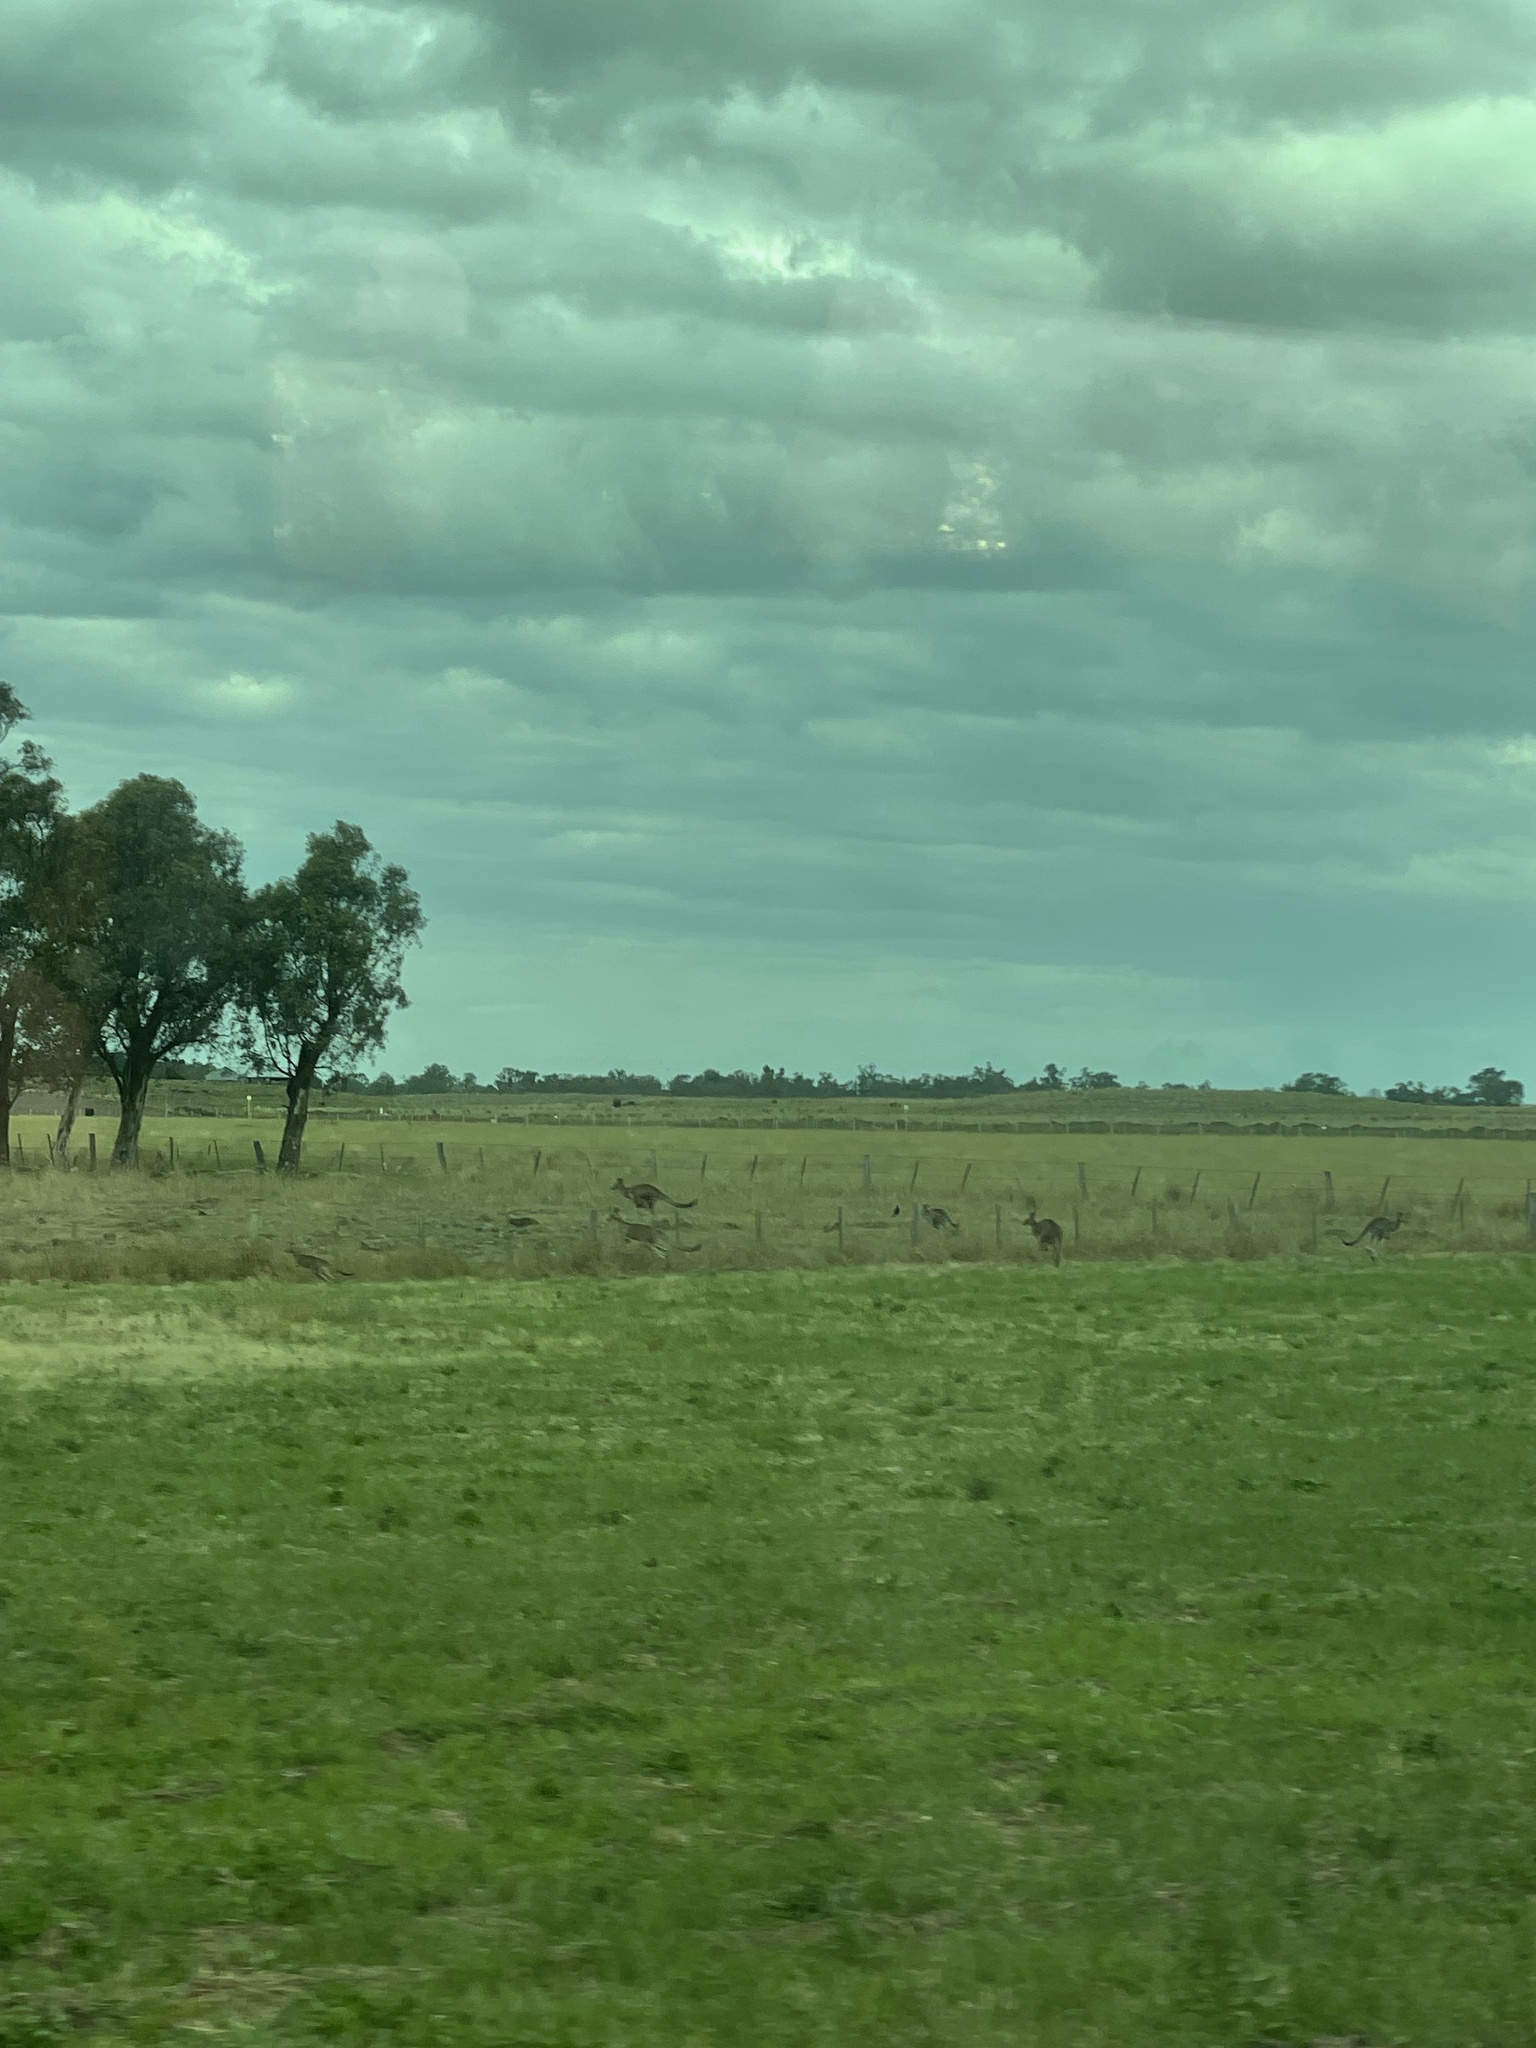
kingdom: Animalia
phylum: Chordata
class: Mammalia
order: Diprotodontia
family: Macropodidae
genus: Macropus
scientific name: Macropus giganteus
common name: Eastern grey kangaroo
